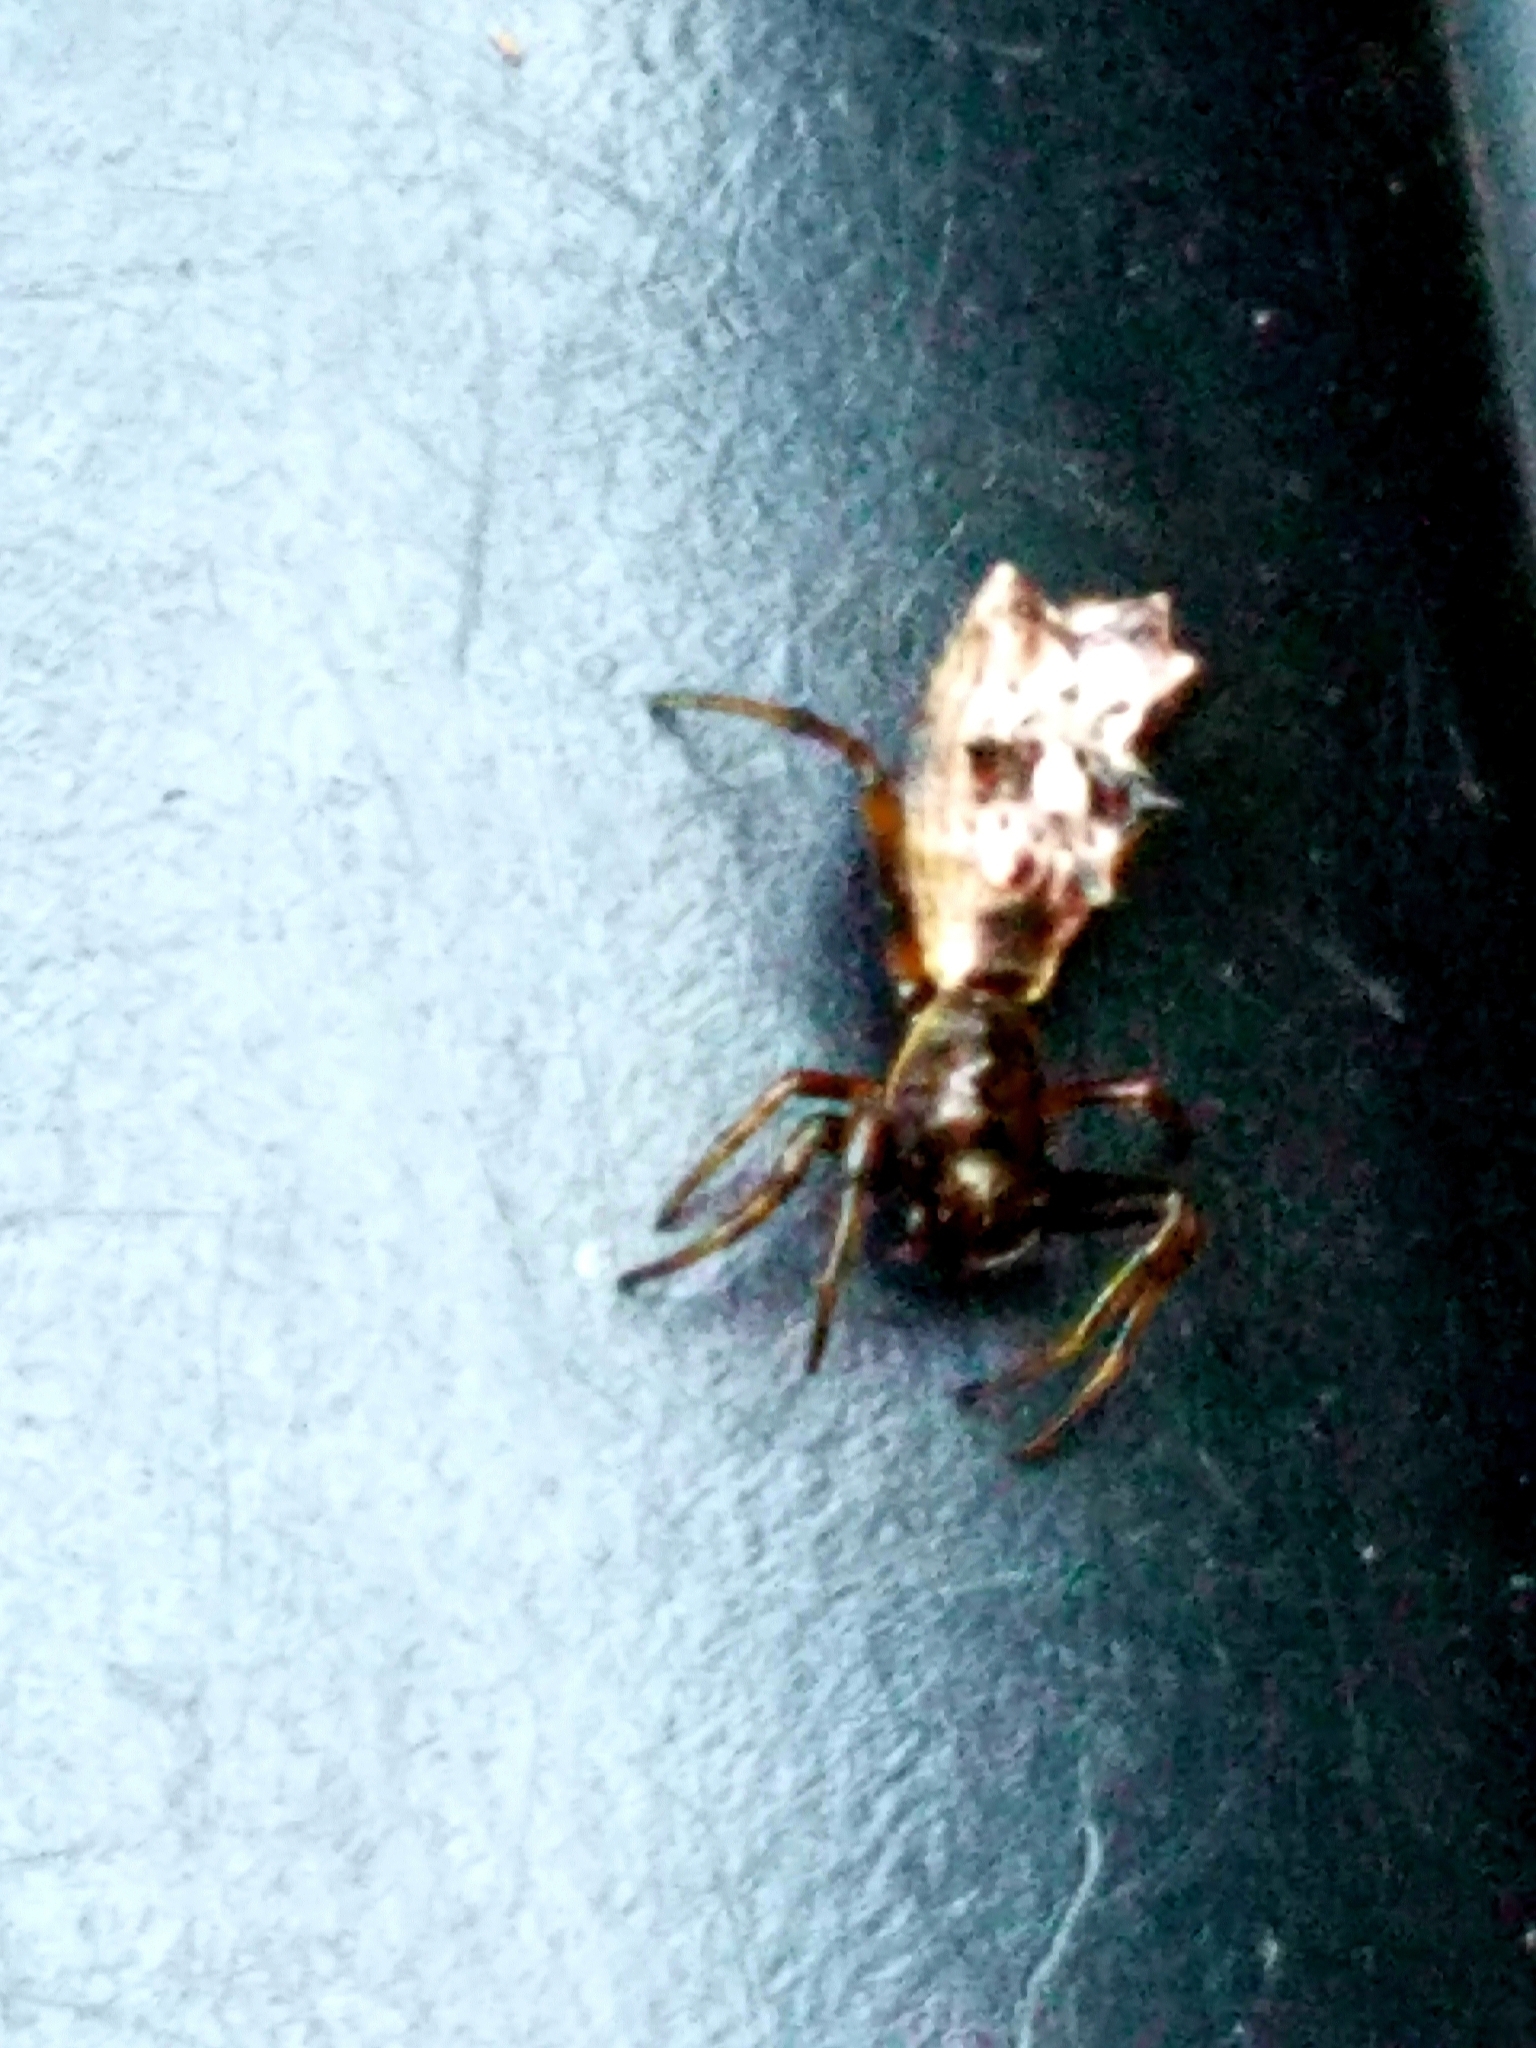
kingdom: Animalia
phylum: Arthropoda
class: Arachnida
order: Araneae
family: Araneidae
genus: Micrathena
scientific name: Micrathena gracilis
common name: Orb weavers
